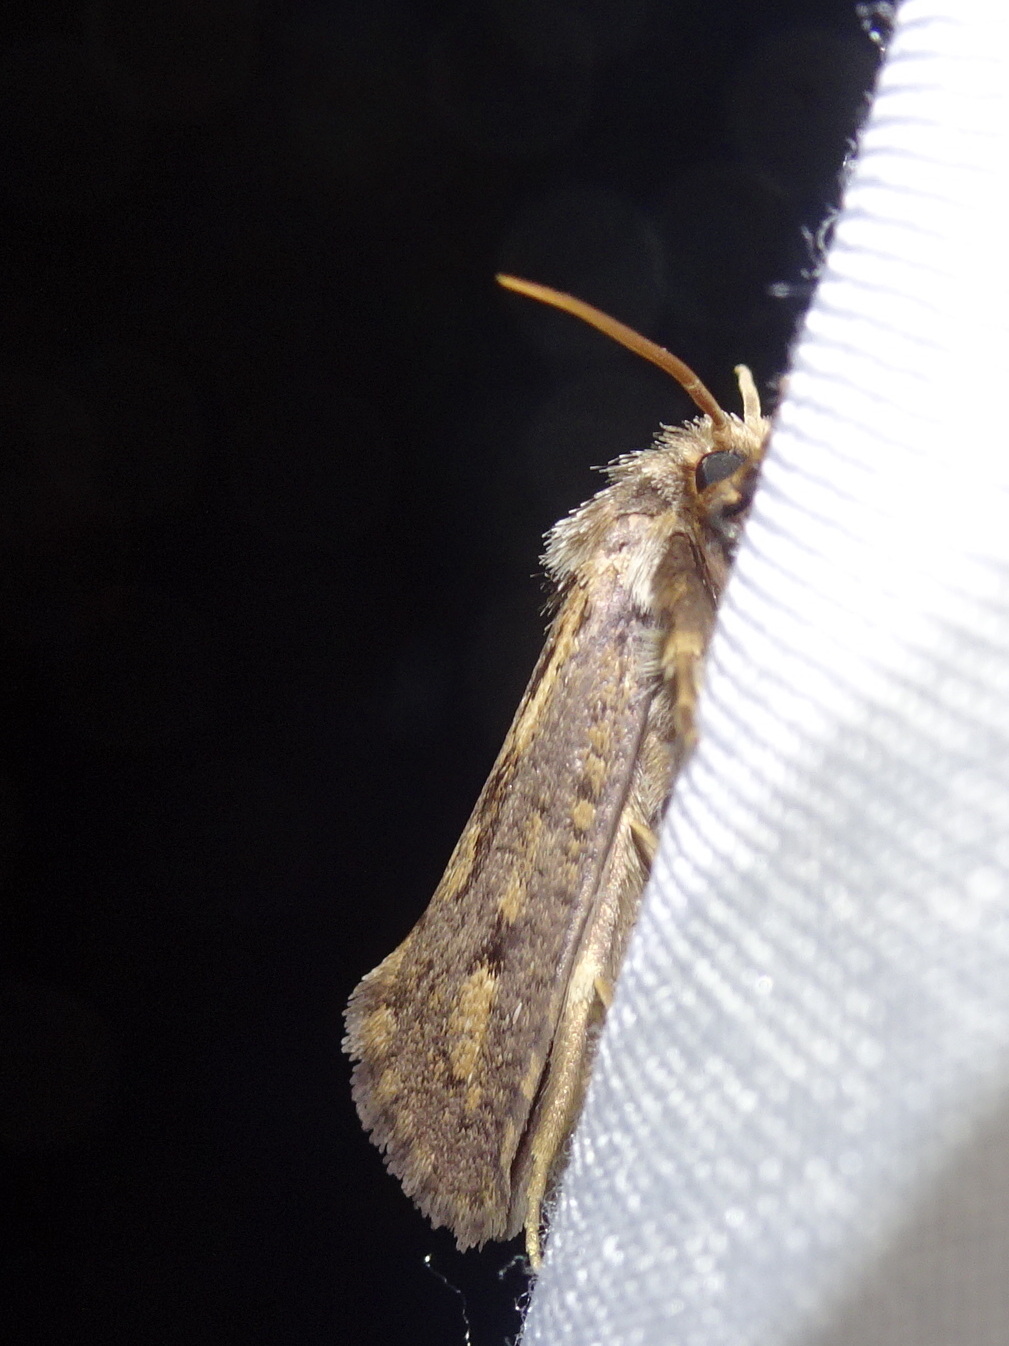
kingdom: Animalia
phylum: Arthropoda
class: Insecta
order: Lepidoptera
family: Tineidae
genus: Acrolophus
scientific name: Acrolophus popeanella
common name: Clemens' grass tubeworm moth
